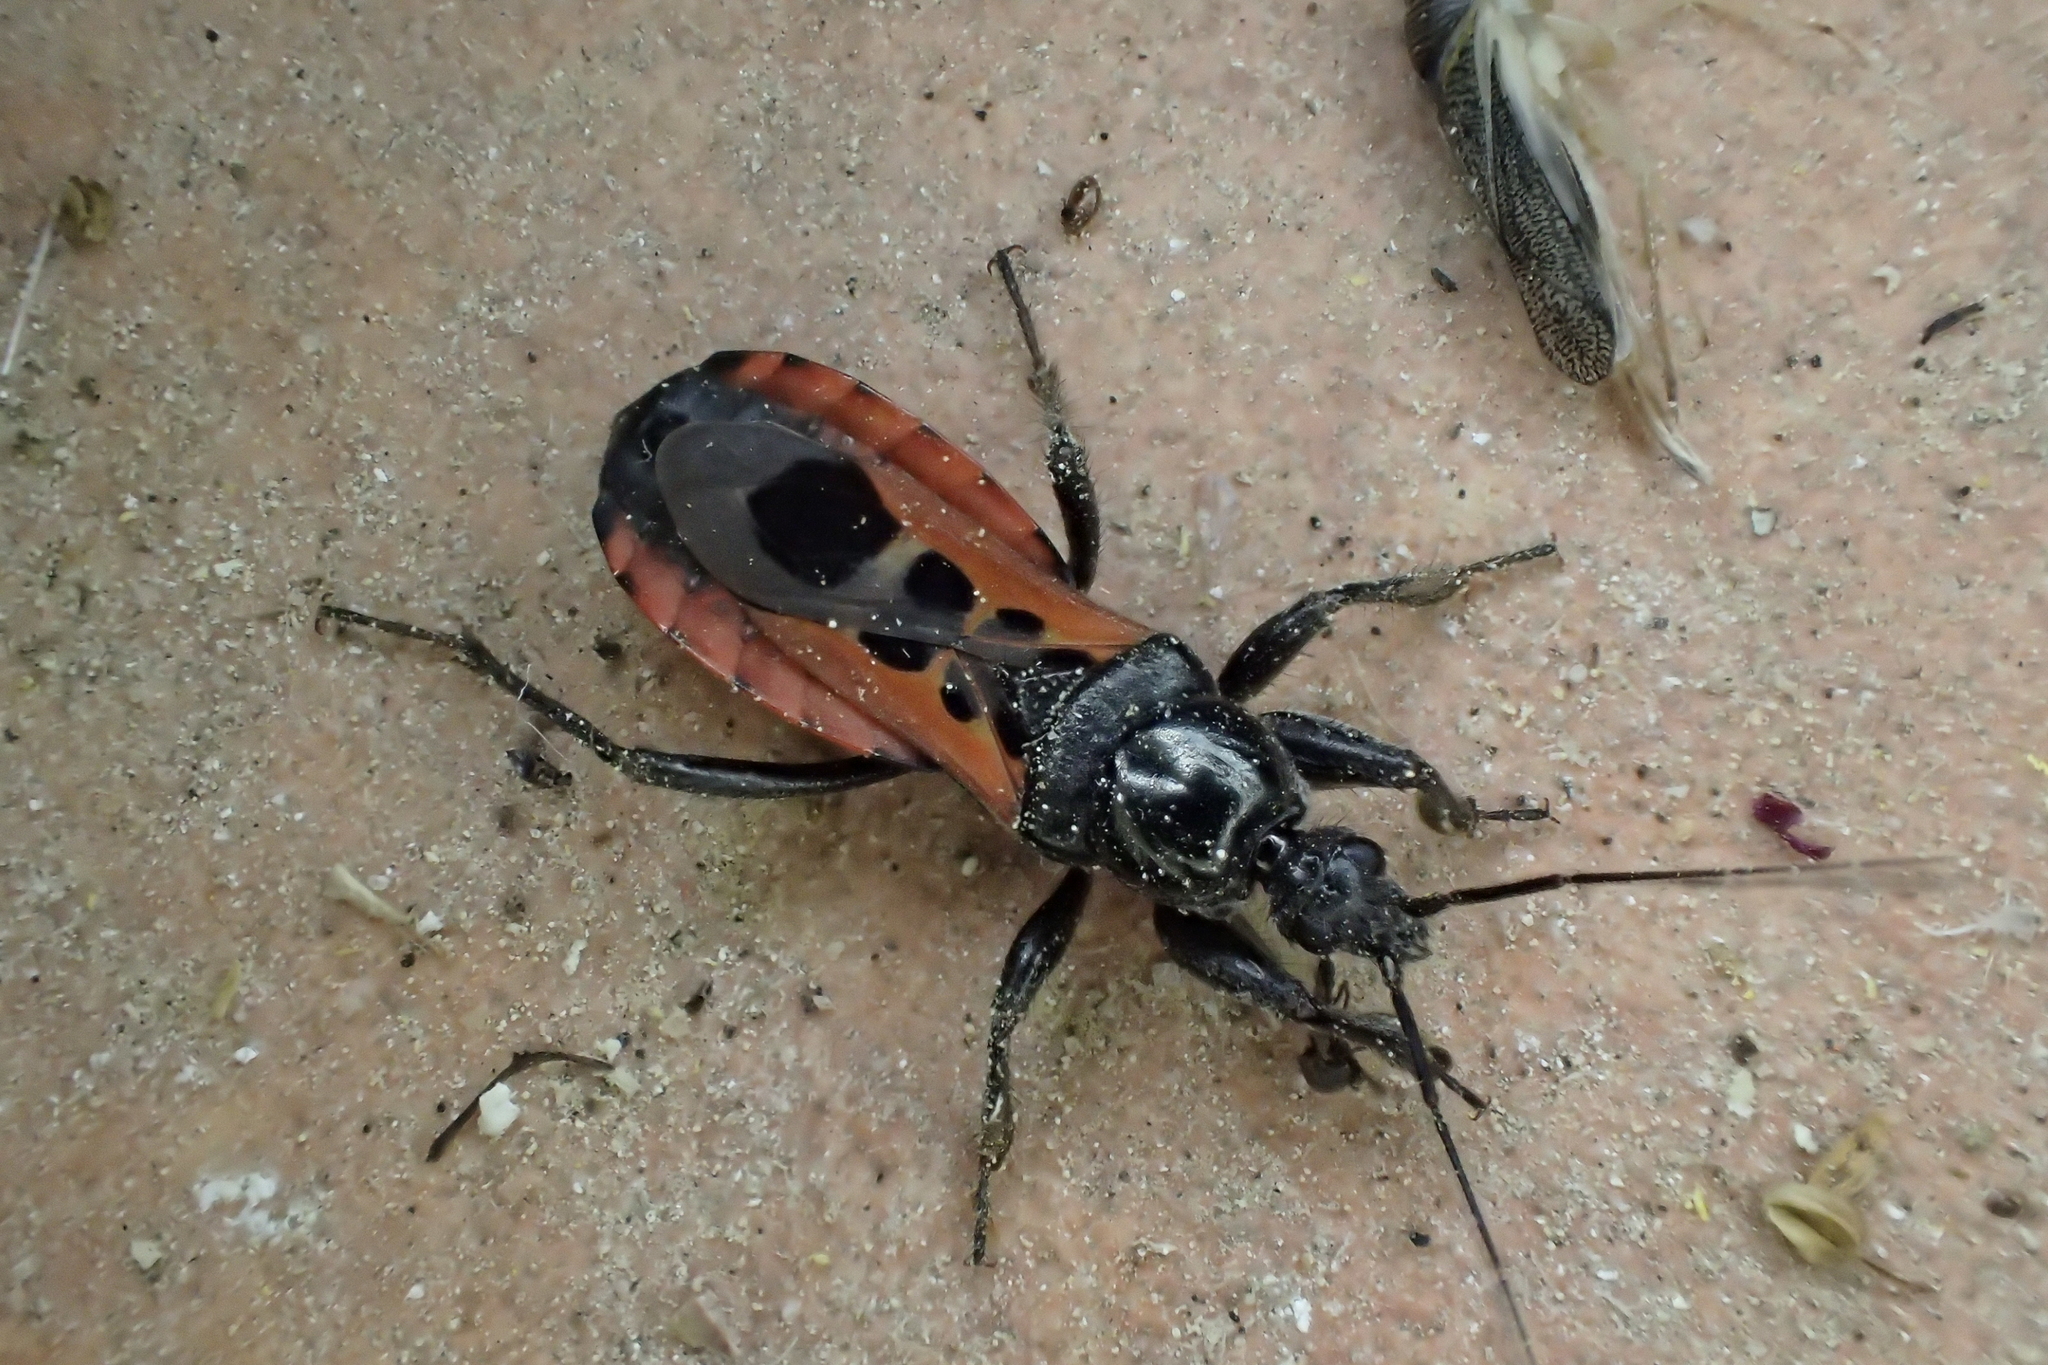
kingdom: Animalia
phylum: Arthropoda
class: Insecta
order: Hemiptera
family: Reduviidae
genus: Peirates
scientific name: Peirates stridulus
